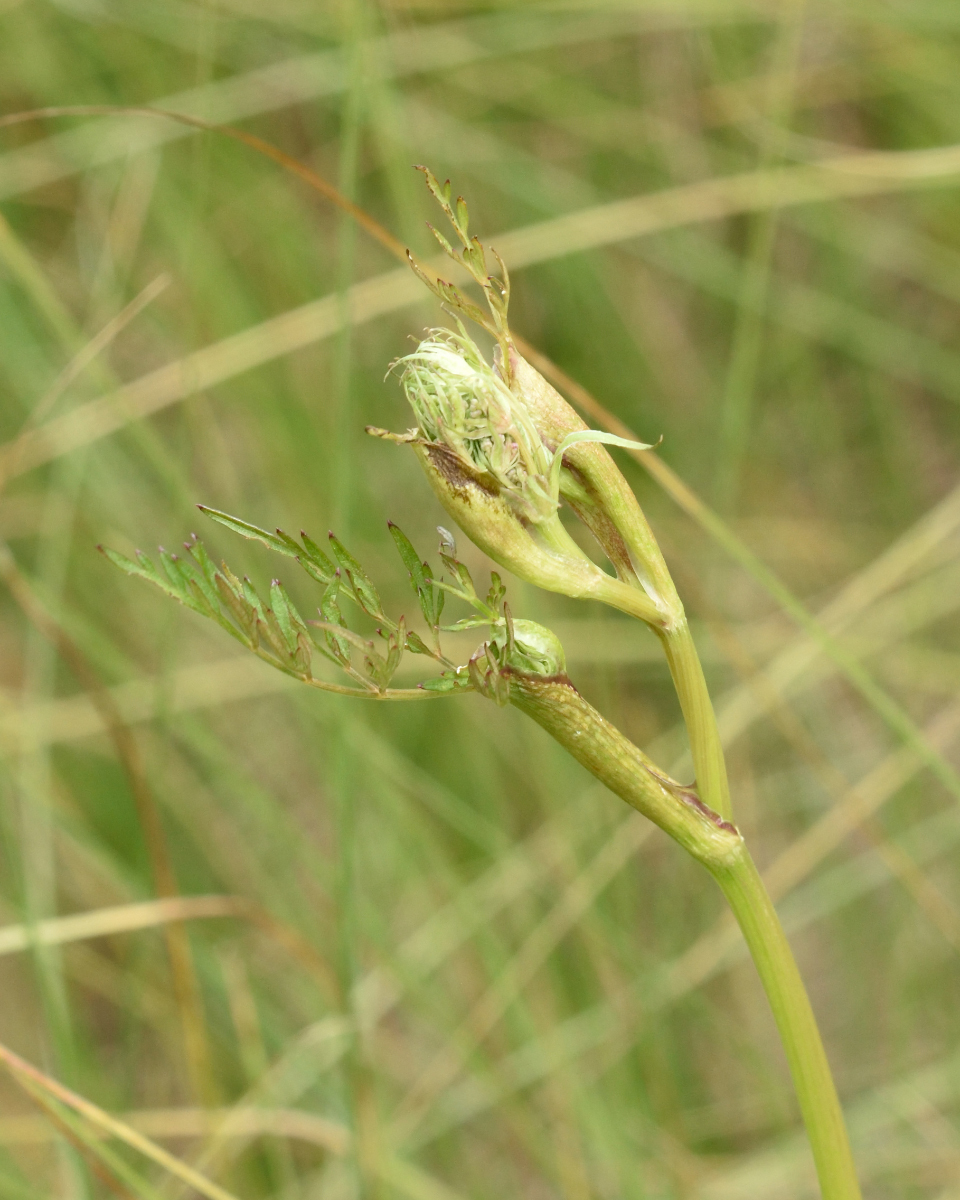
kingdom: Plantae
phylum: Tracheophyta
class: Magnoliopsida
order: Apiales
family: Apiaceae
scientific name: Apiaceae
